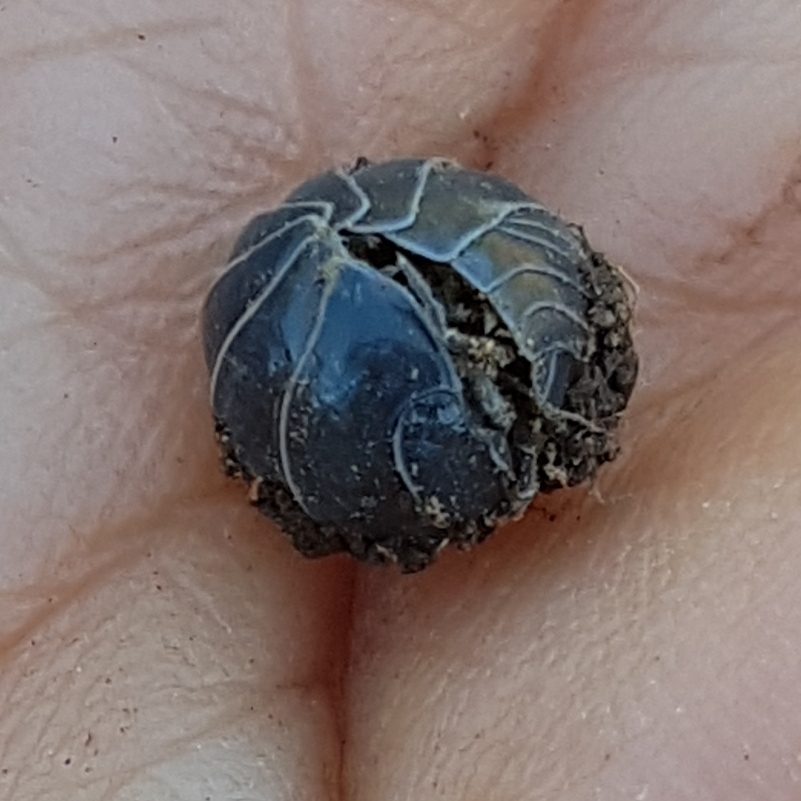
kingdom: Animalia
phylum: Arthropoda
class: Malacostraca
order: Isopoda
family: Armadillidiidae
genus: Armadillidium
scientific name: Armadillidium vulgare
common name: Common pill woodlouse
